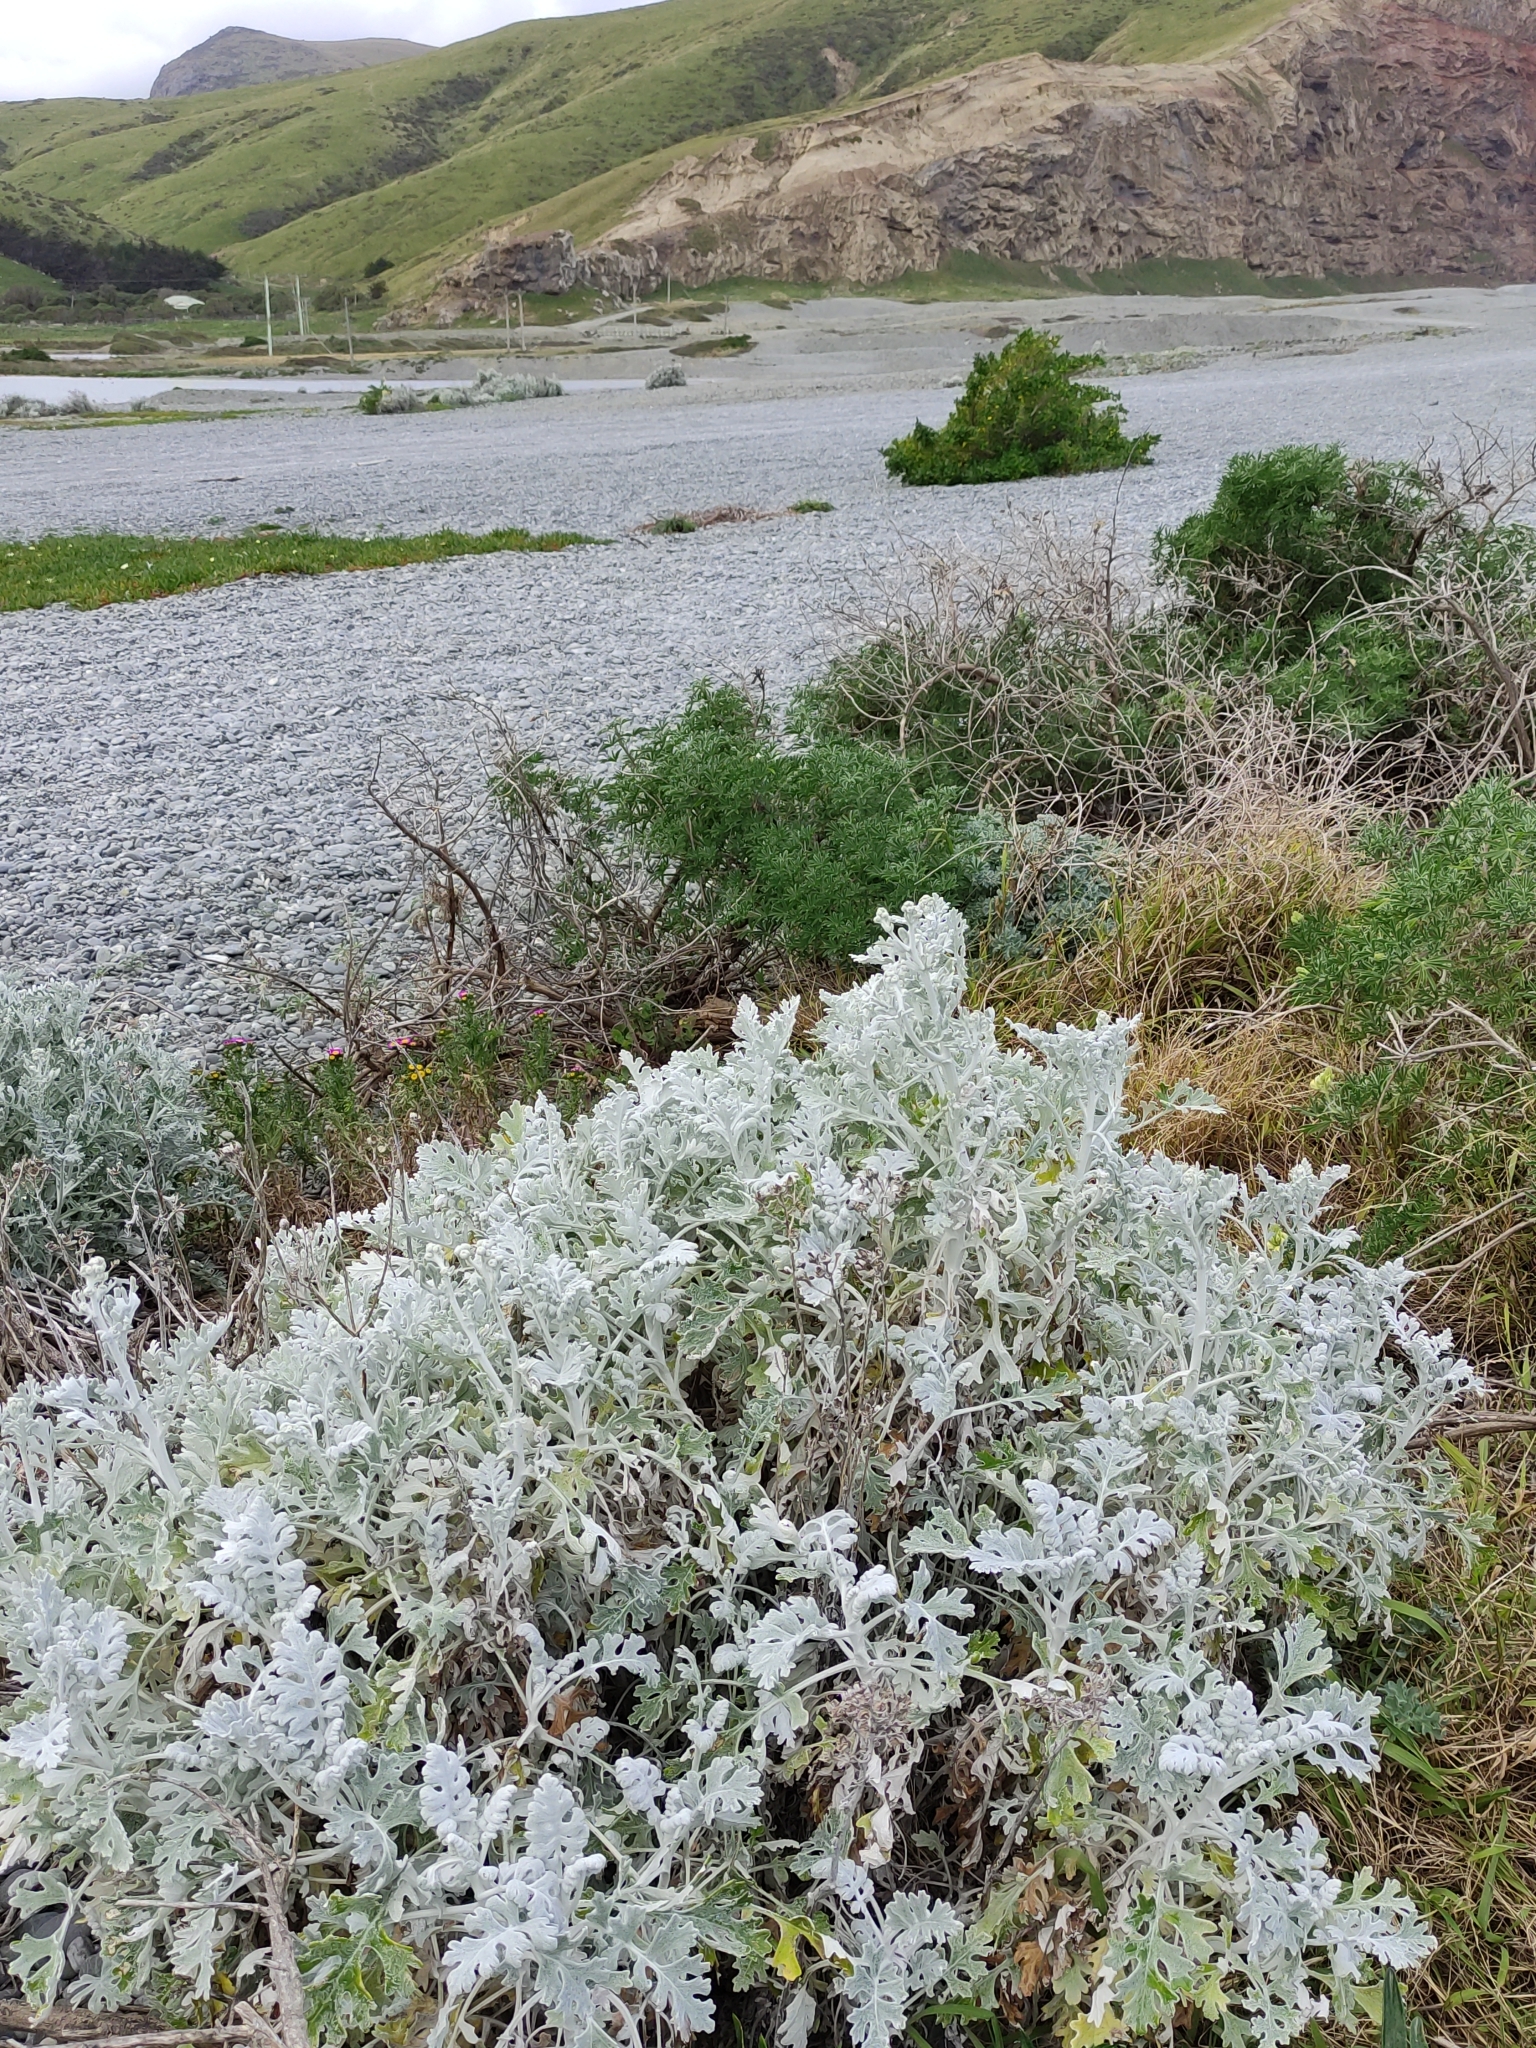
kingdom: Plantae
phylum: Tracheophyta
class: Magnoliopsida
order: Asterales
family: Asteraceae
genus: Jacobaea
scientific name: Jacobaea maritima
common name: Silver ragwort
